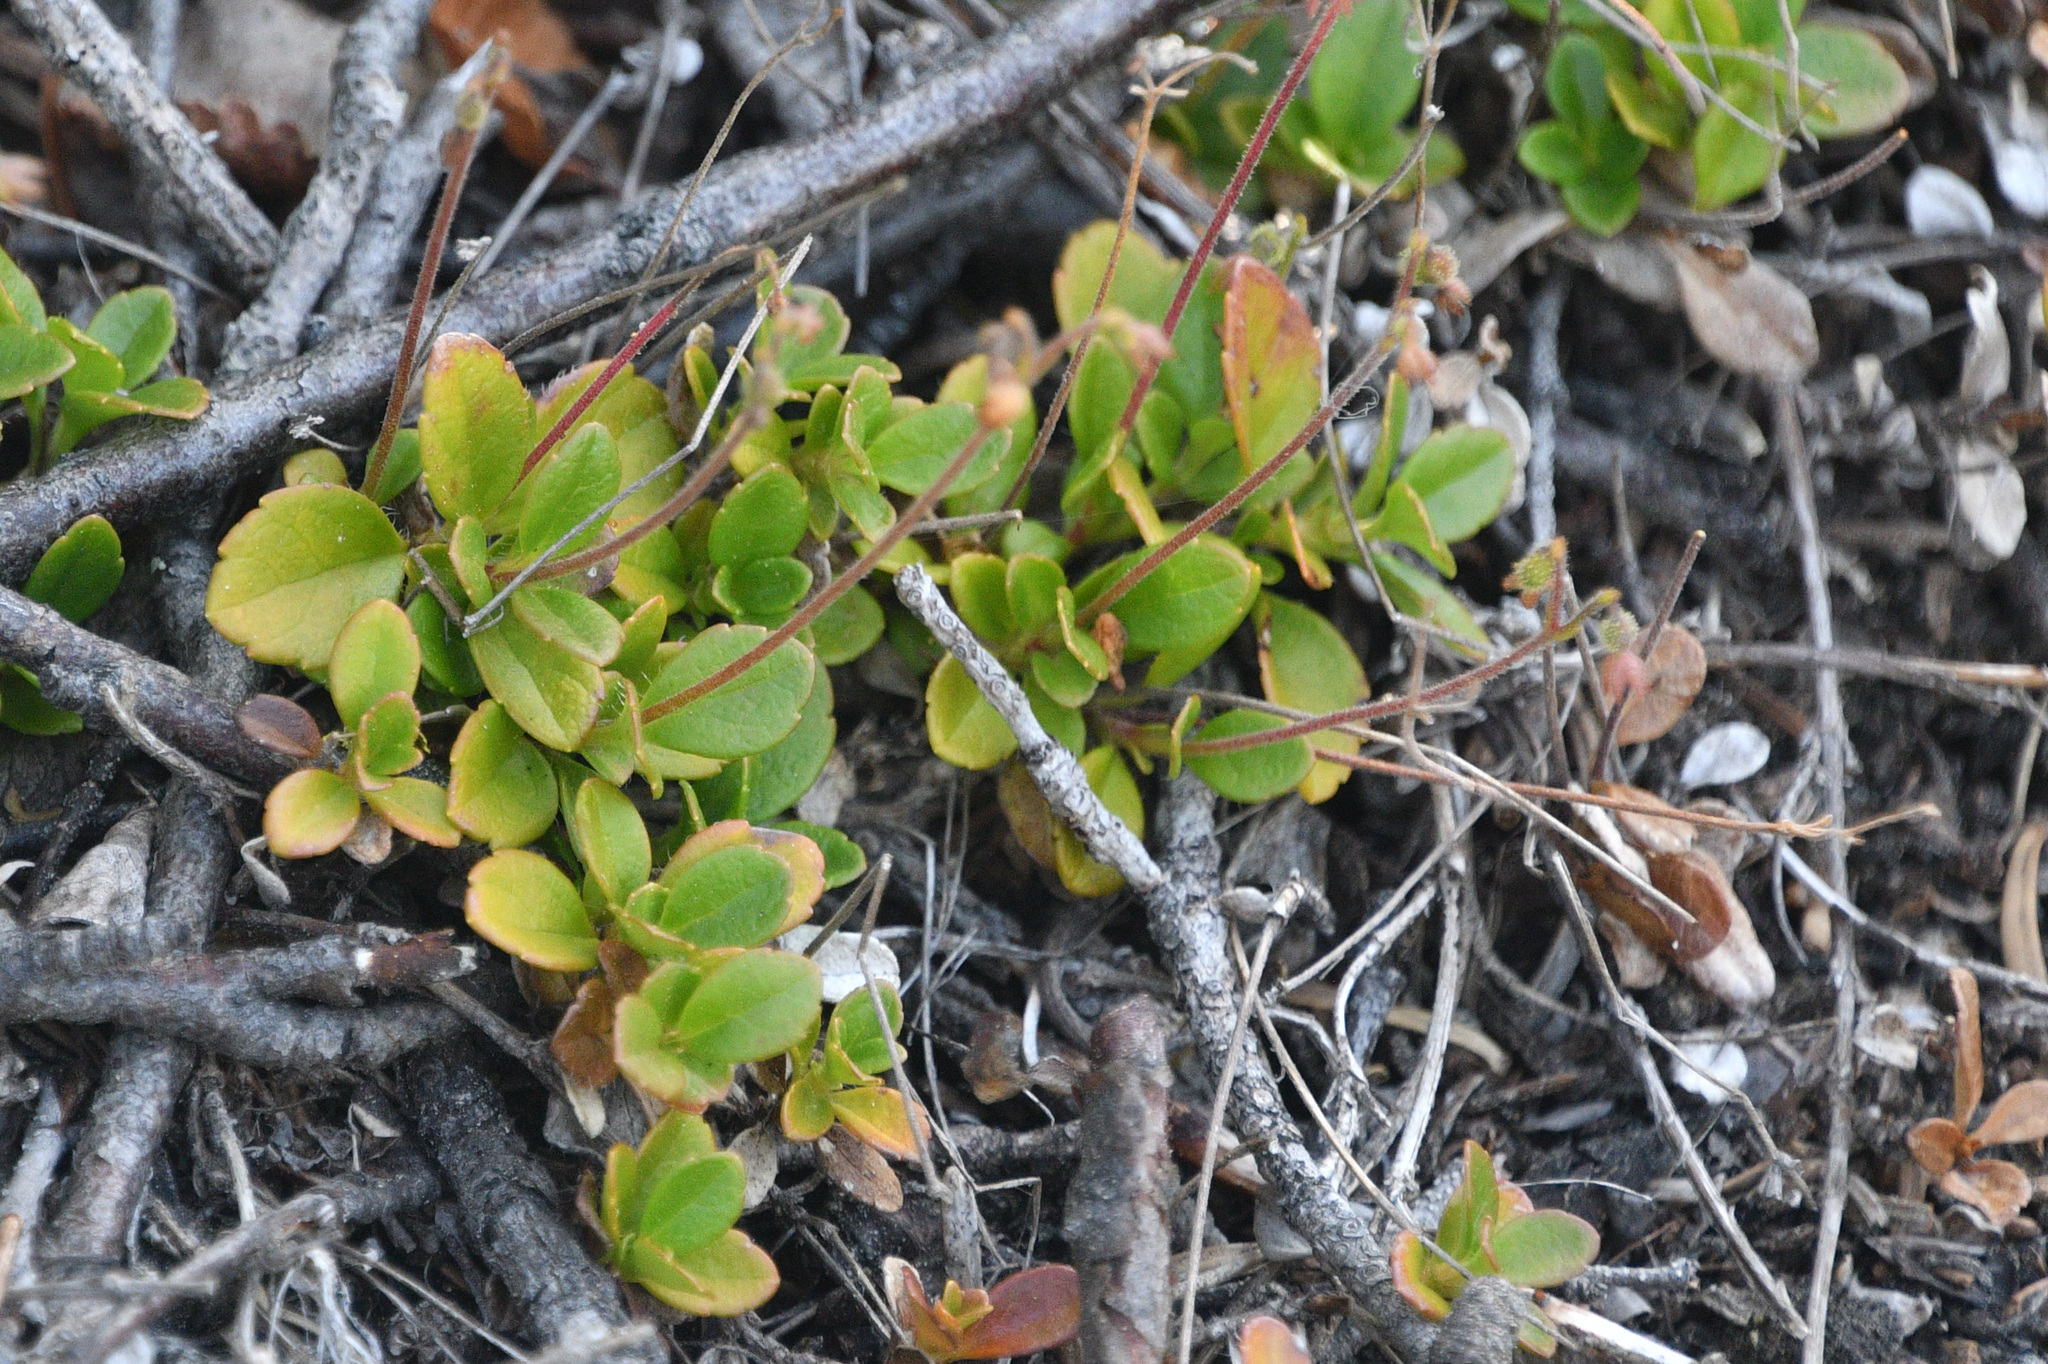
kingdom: Plantae
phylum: Tracheophyta
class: Magnoliopsida
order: Dipsacales
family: Caprifoliaceae
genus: Linnaea
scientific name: Linnaea borealis
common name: Twinflower
